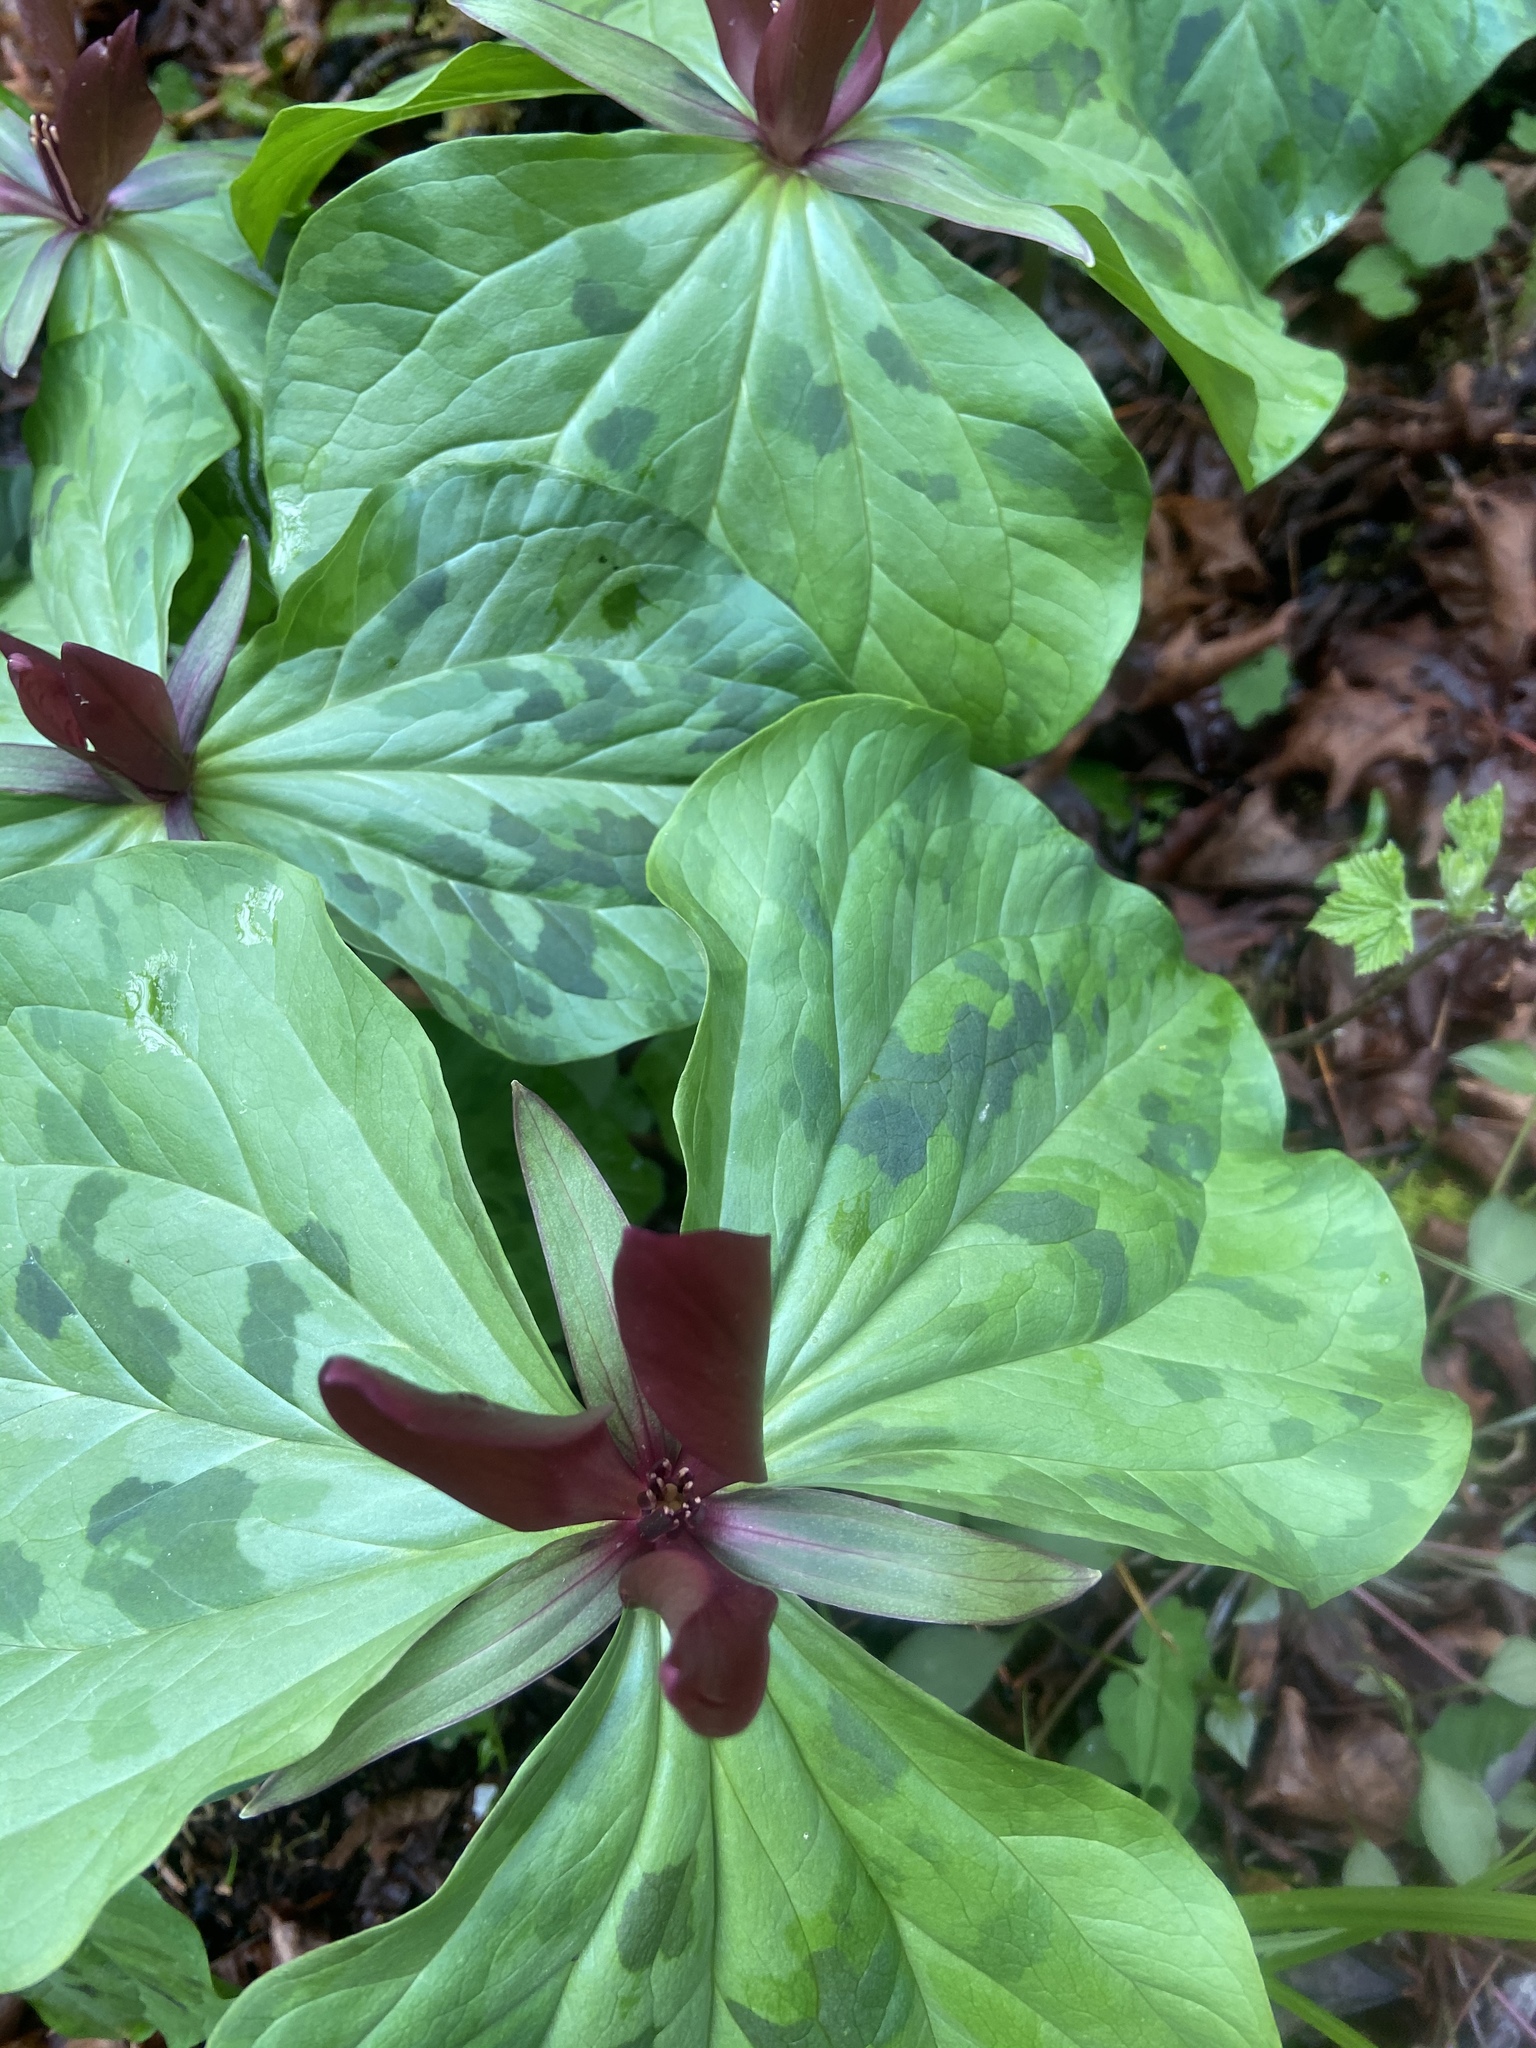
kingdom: Plantae
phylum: Tracheophyta
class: Liliopsida
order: Liliales
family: Melanthiaceae
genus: Trillium
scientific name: Trillium kurabayashii
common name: Giant purple trillium
